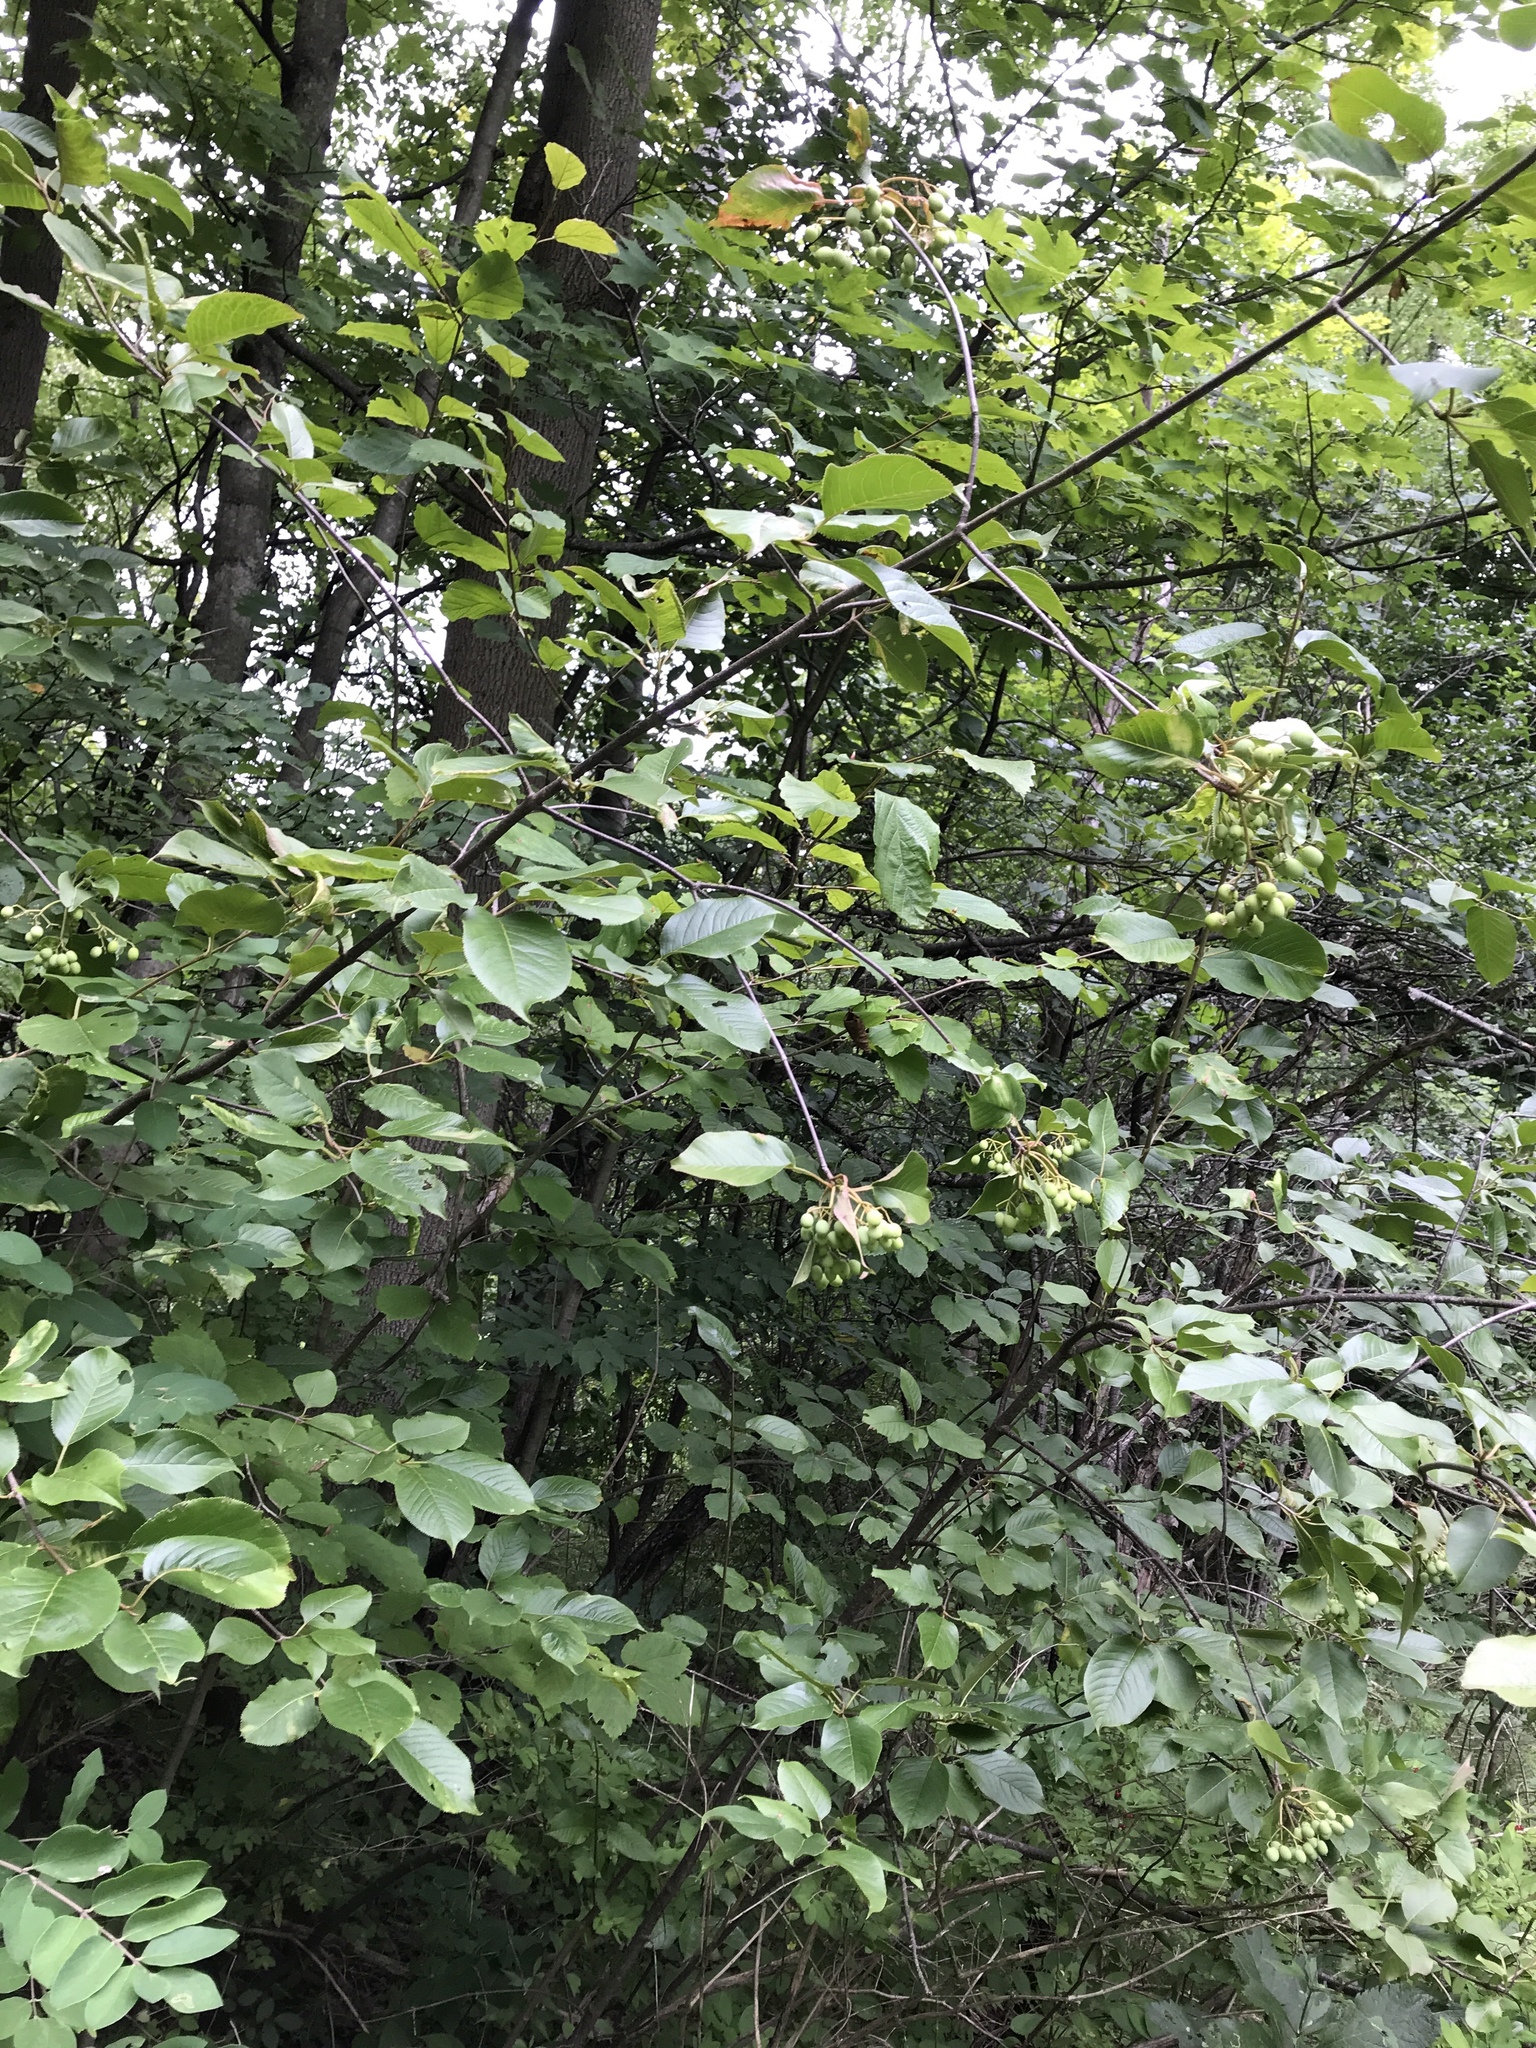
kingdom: Plantae
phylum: Tracheophyta
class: Magnoliopsida
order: Dipsacales
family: Viburnaceae
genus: Viburnum
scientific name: Viburnum lentago
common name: Black haw
